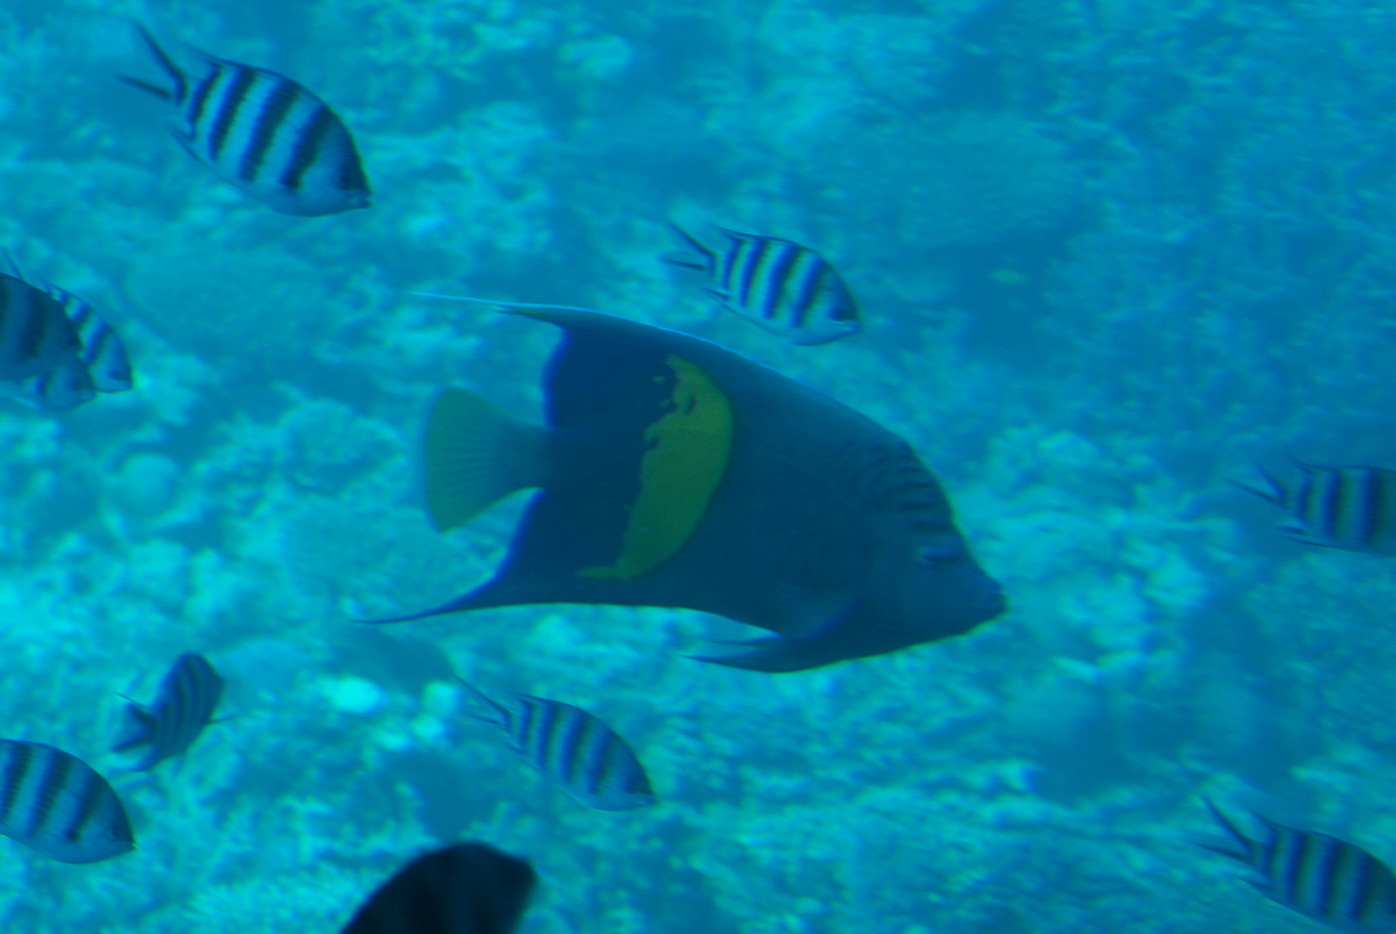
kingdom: Animalia
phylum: Chordata
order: Perciformes
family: Pomacanthidae
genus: Pomacanthus
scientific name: Pomacanthus maculosus
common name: Yellowbar angelfish
